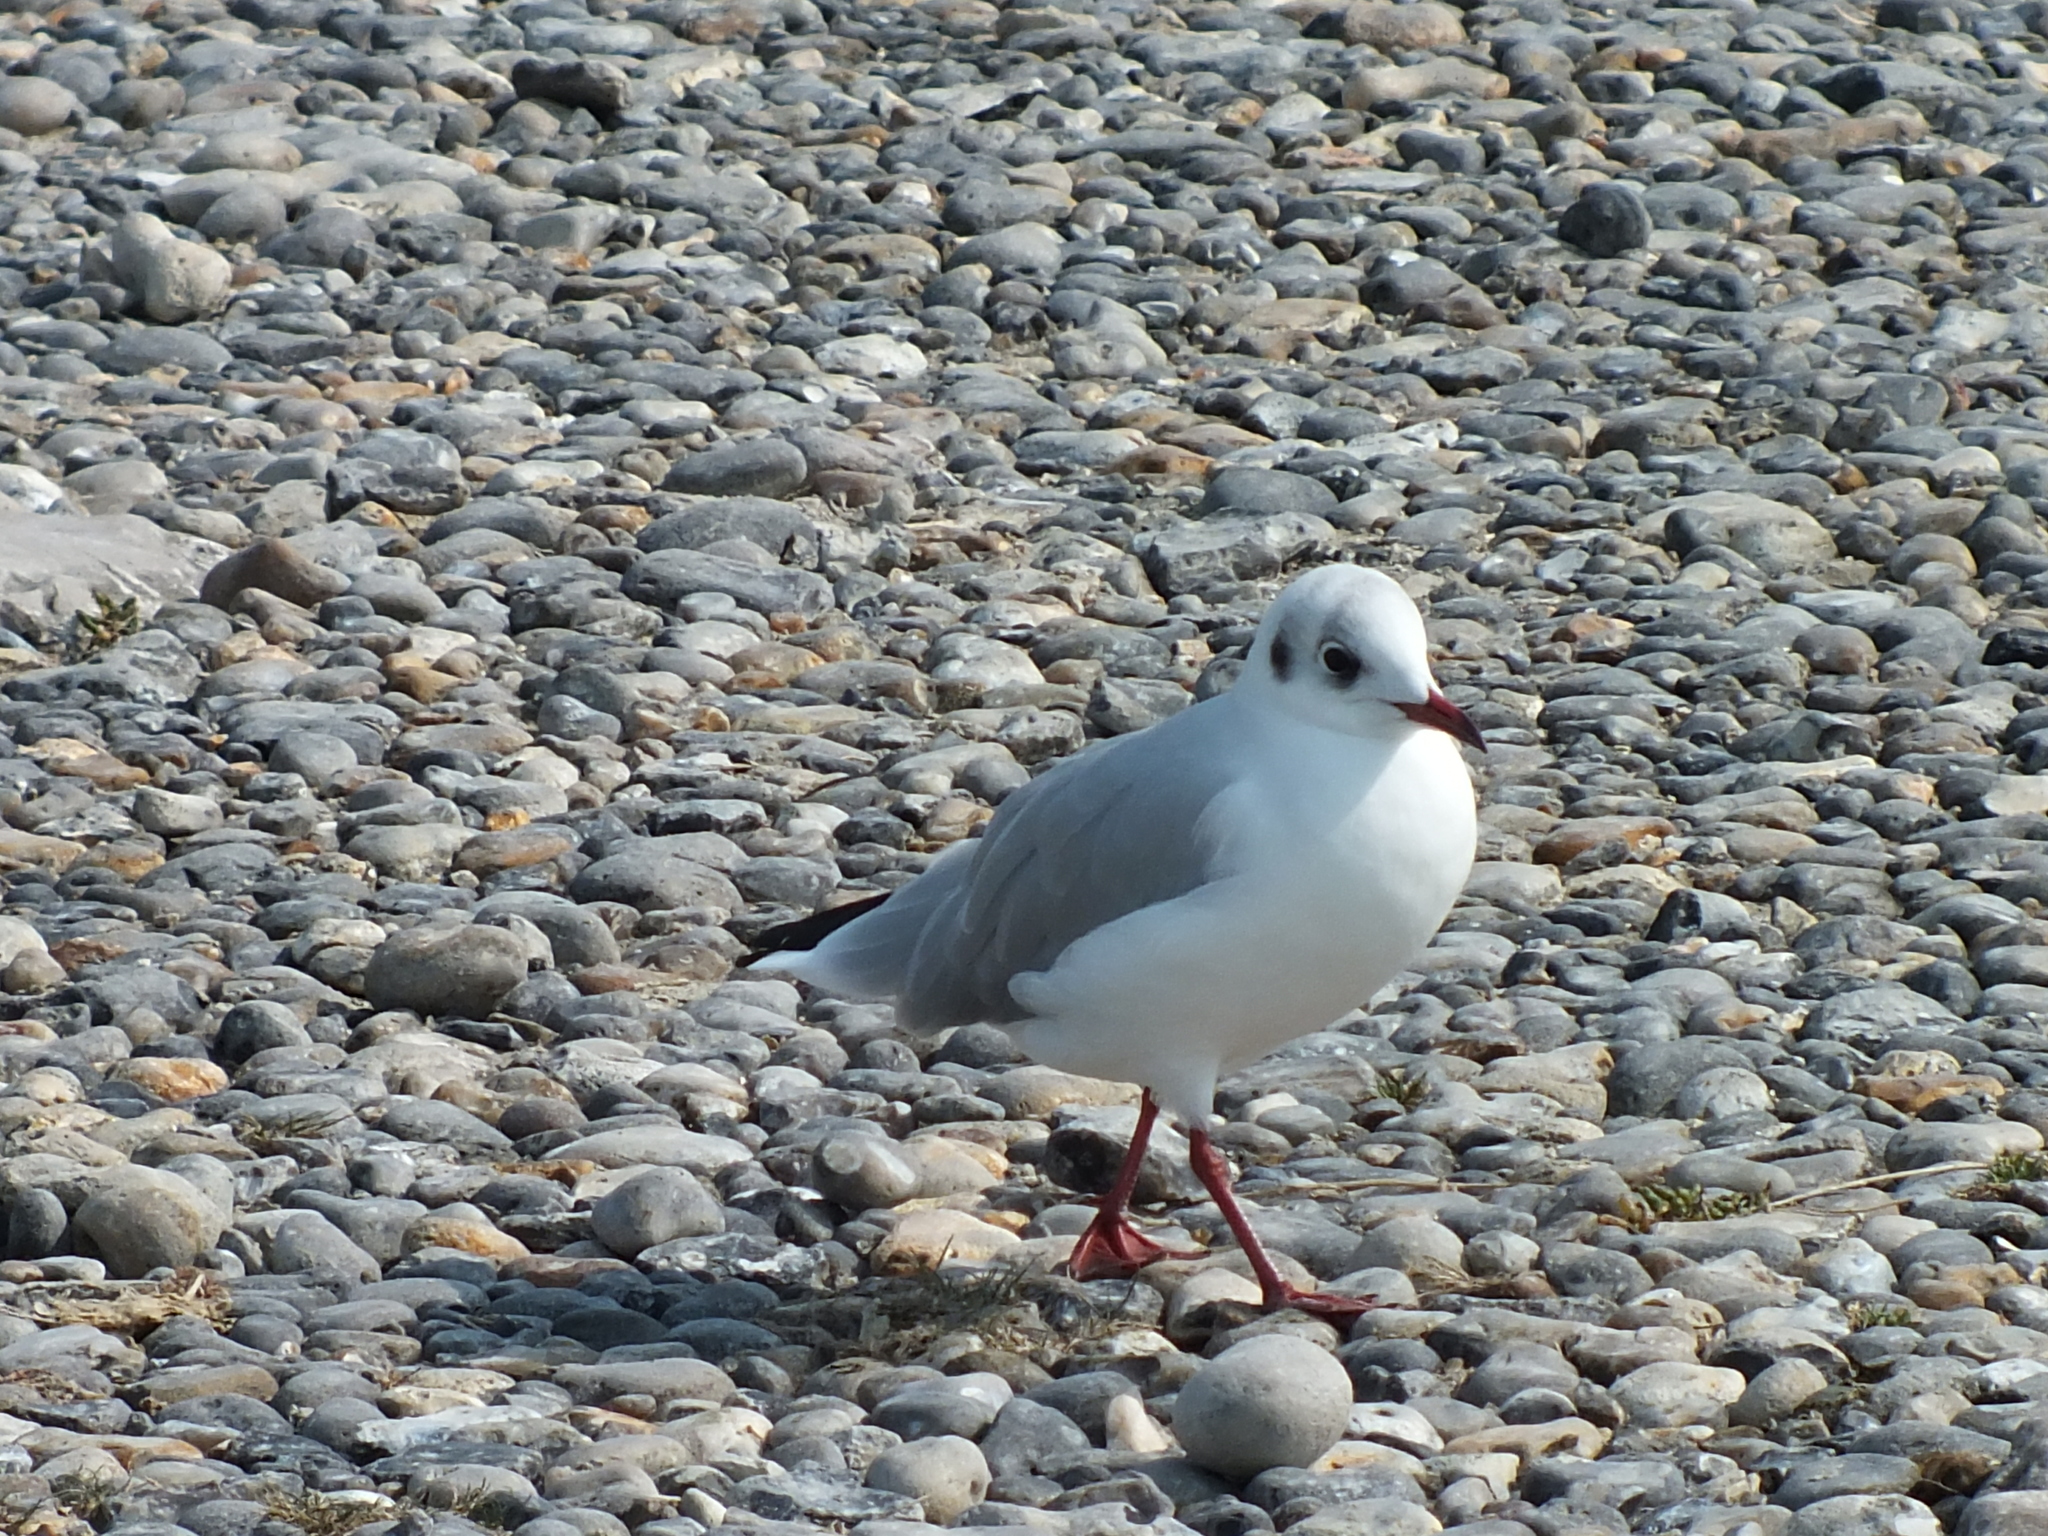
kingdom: Animalia
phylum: Chordata
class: Aves
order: Charadriiformes
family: Laridae
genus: Chroicocephalus
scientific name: Chroicocephalus ridibundus
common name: Black-headed gull
